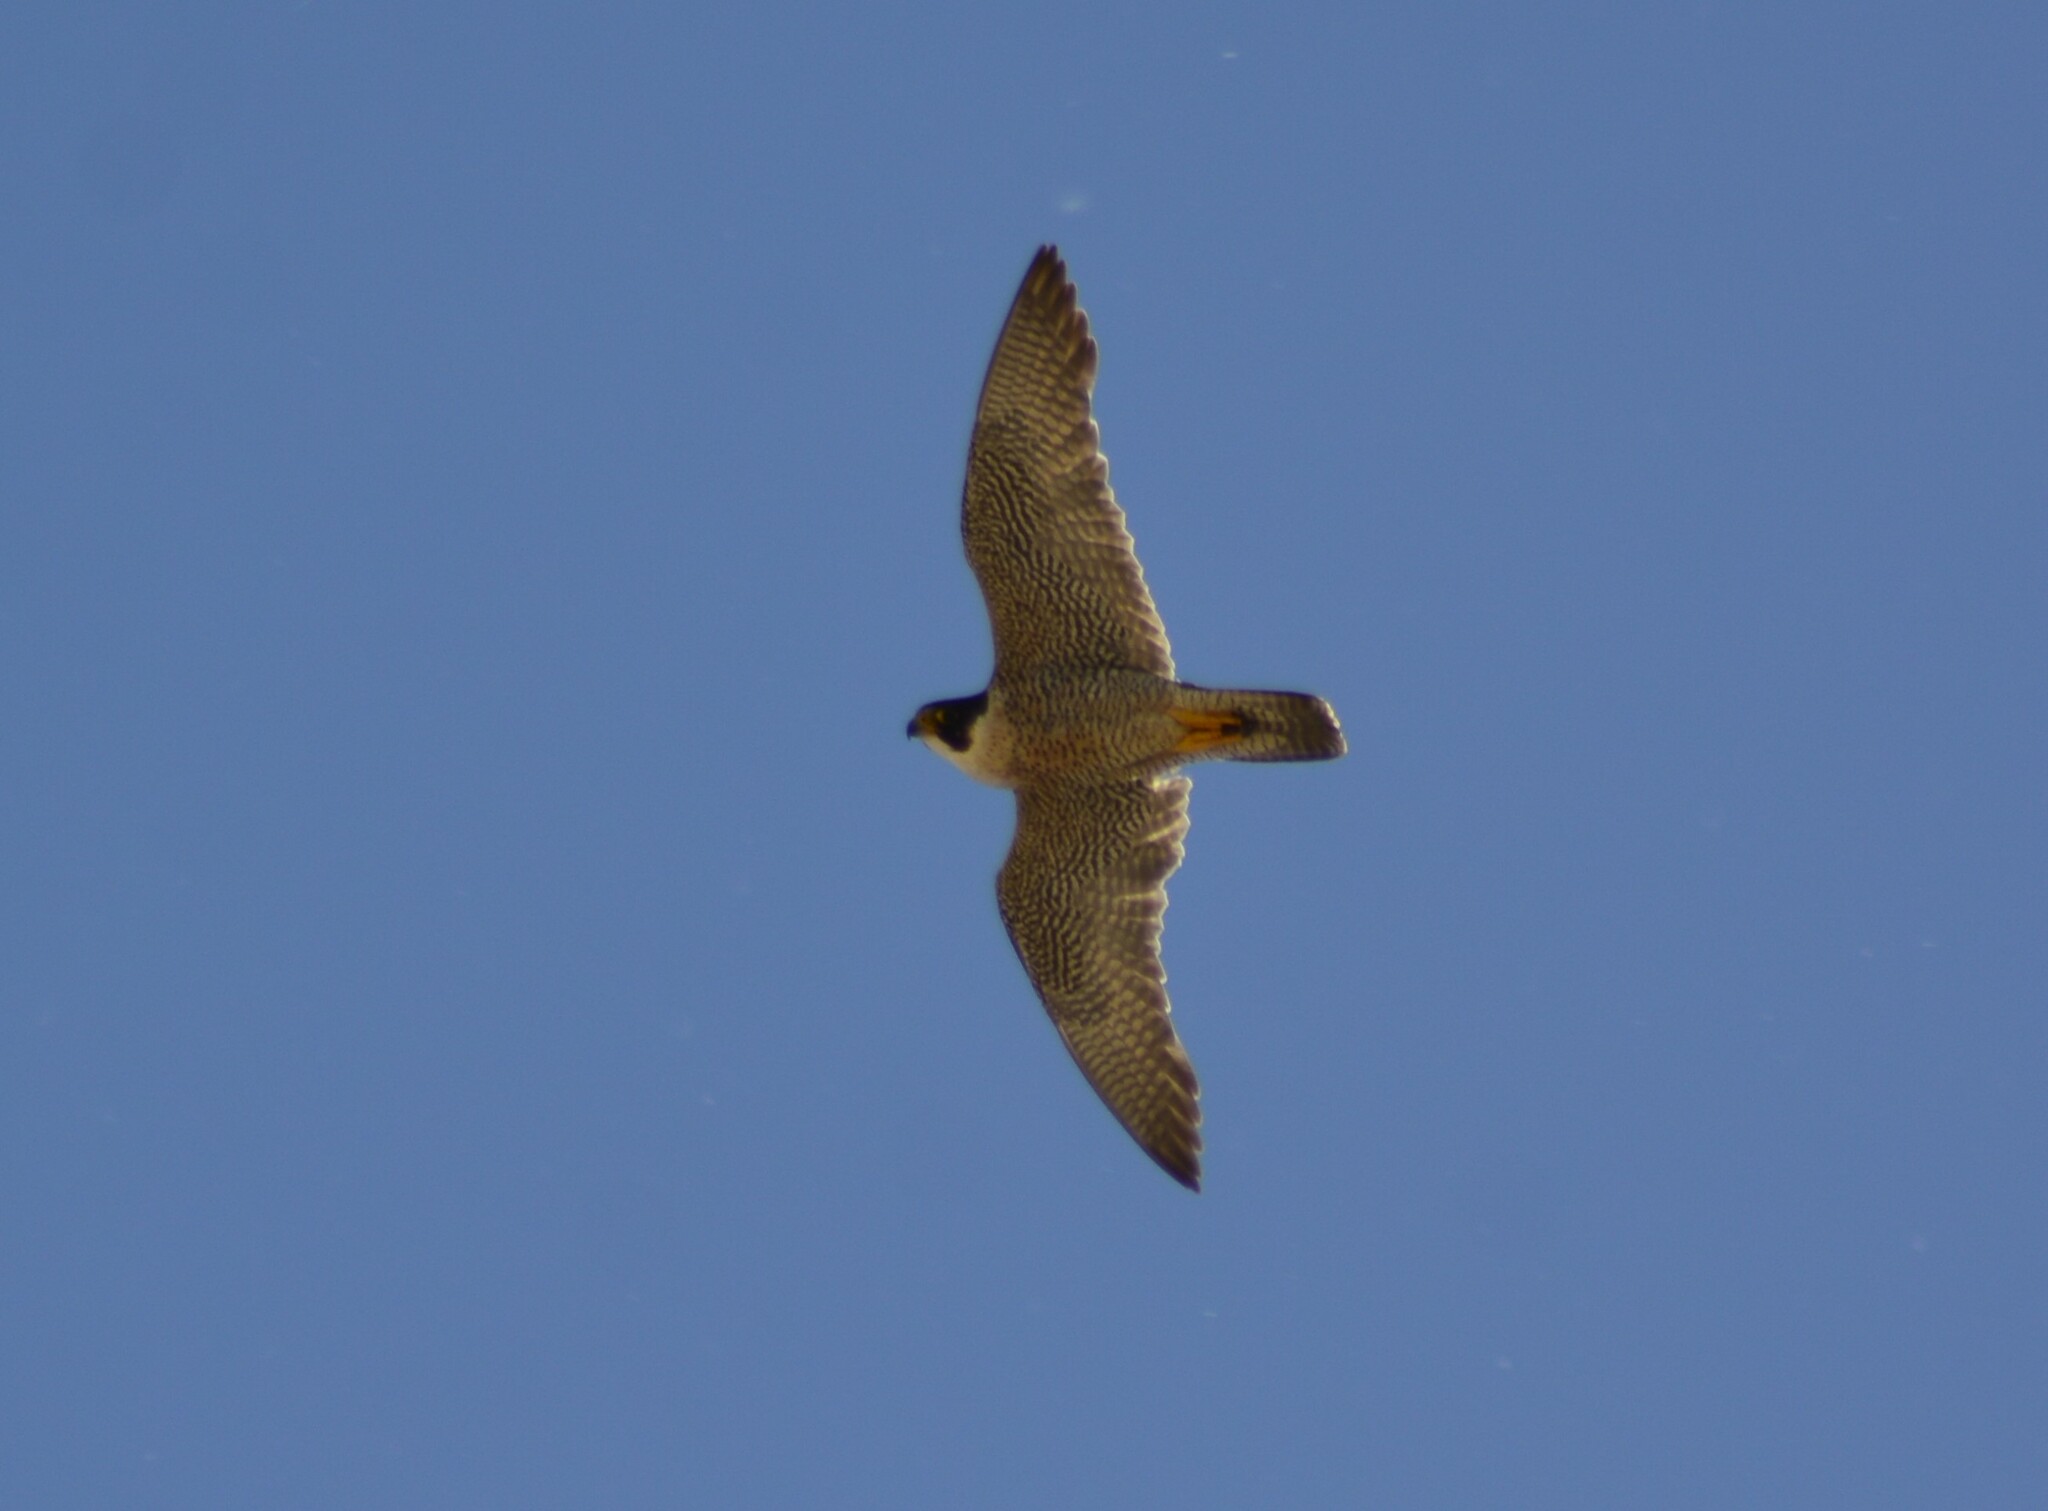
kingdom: Animalia
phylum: Chordata
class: Aves
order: Falconiformes
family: Falconidae
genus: Falco
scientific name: Falco peregrinus
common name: Peregrine falcon
